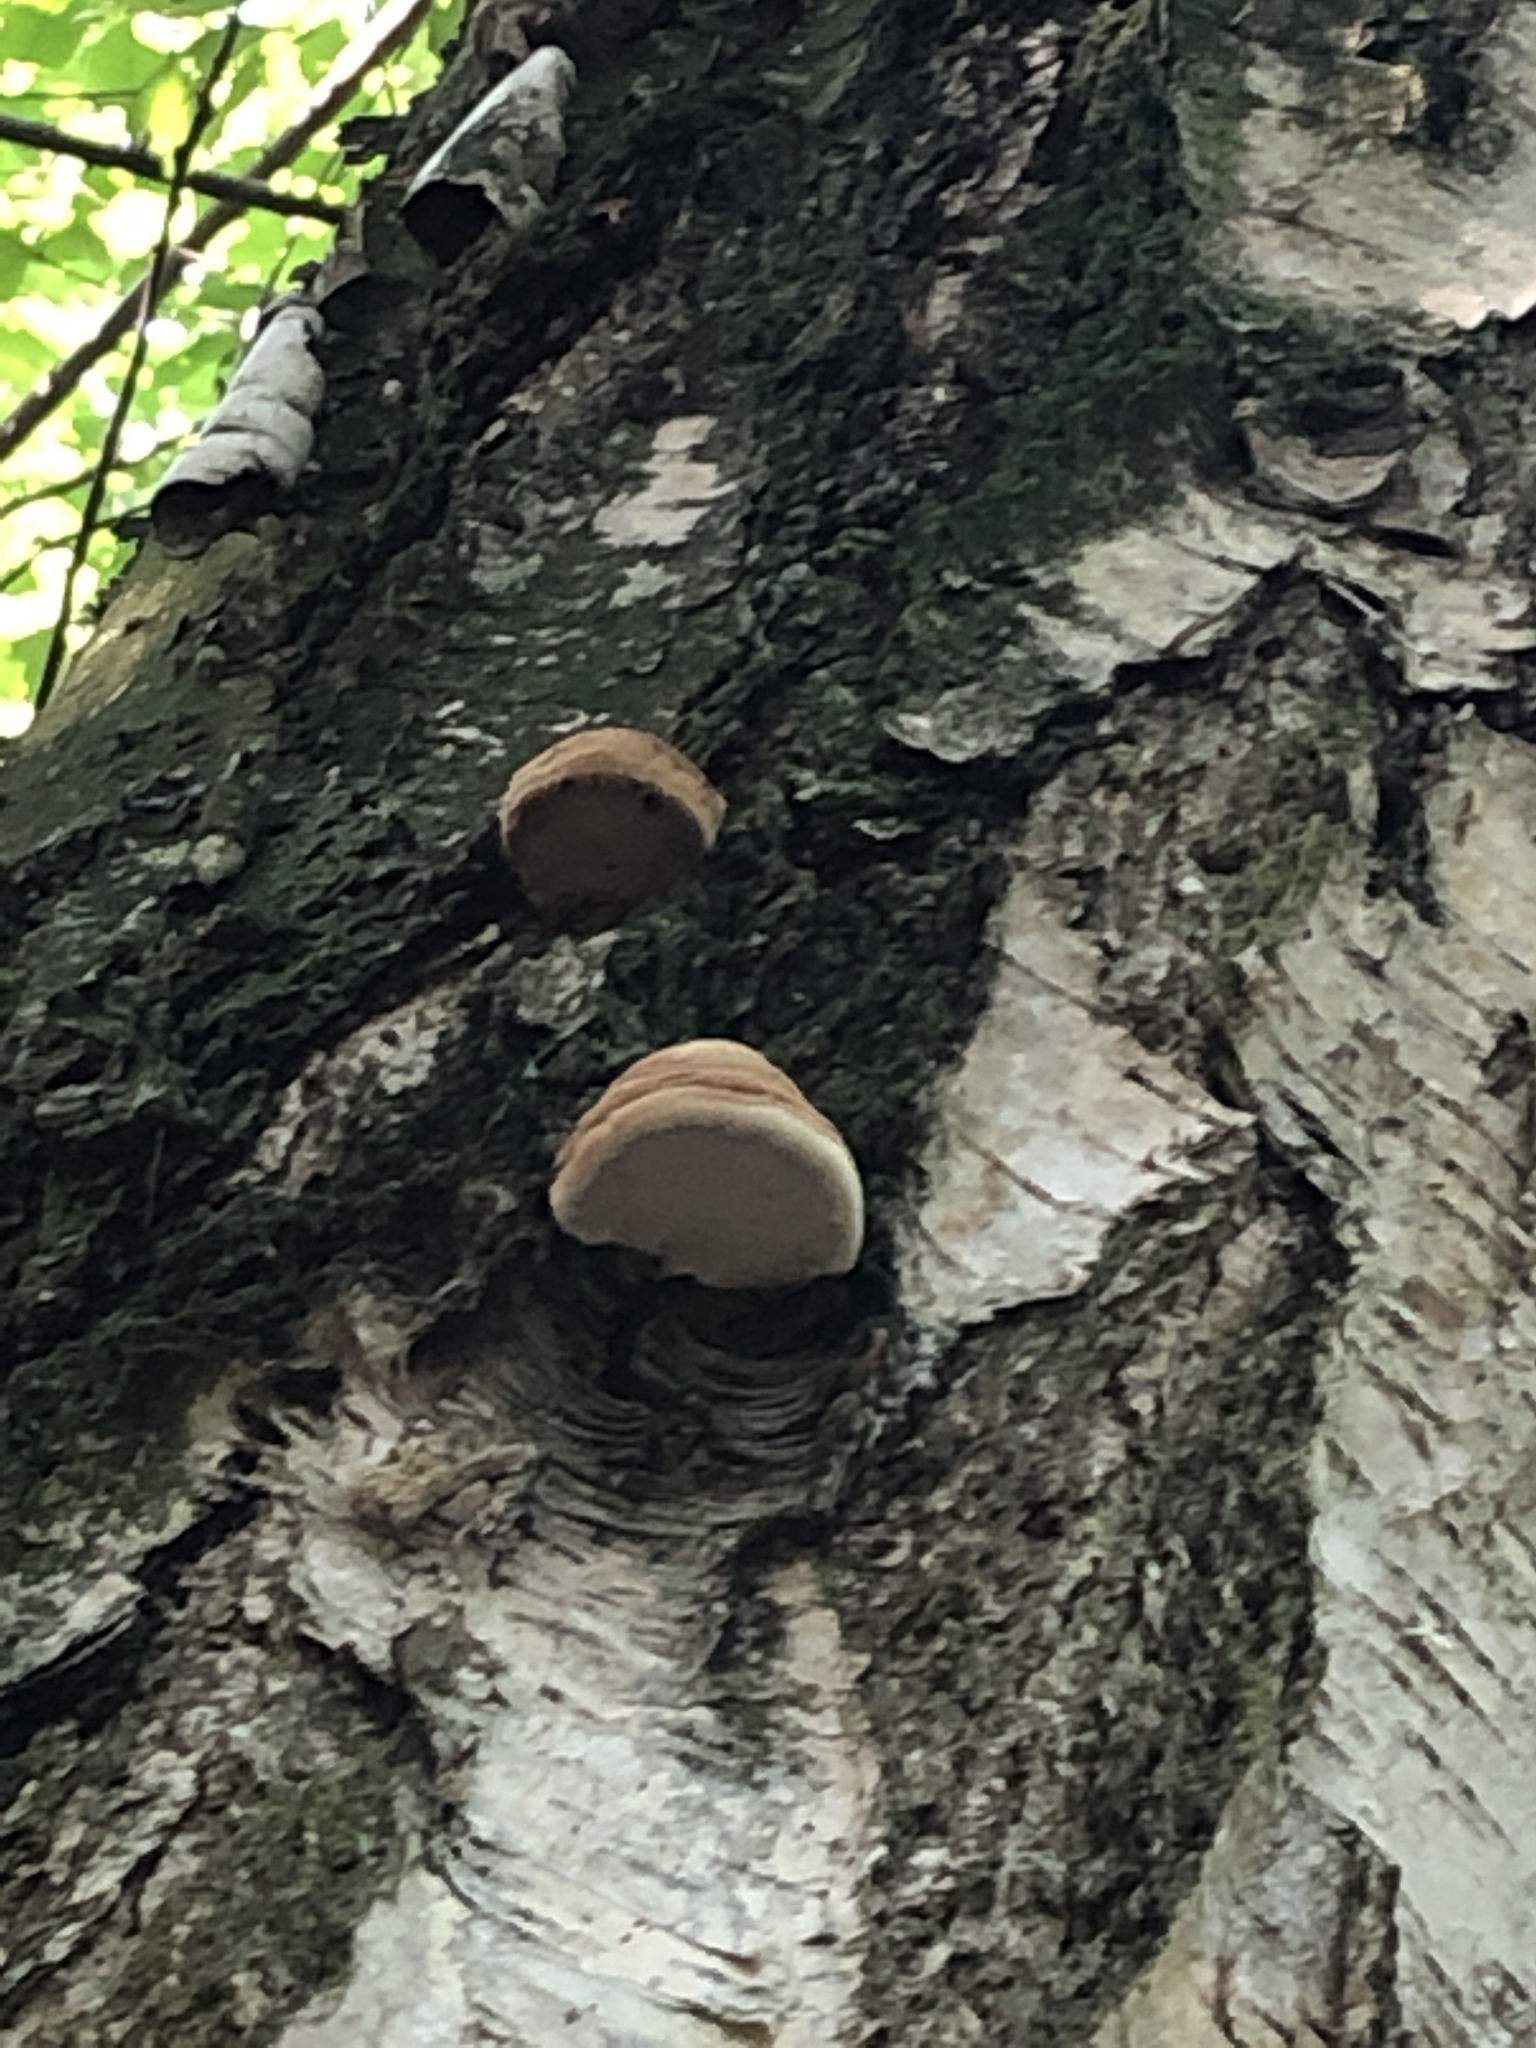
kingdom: Fungi
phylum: Basidiomycota
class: Agaricomycetes
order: Polyporales
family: Polyporaceae
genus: Fomes
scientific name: Fomes fomentarius
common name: Hoof fungus
